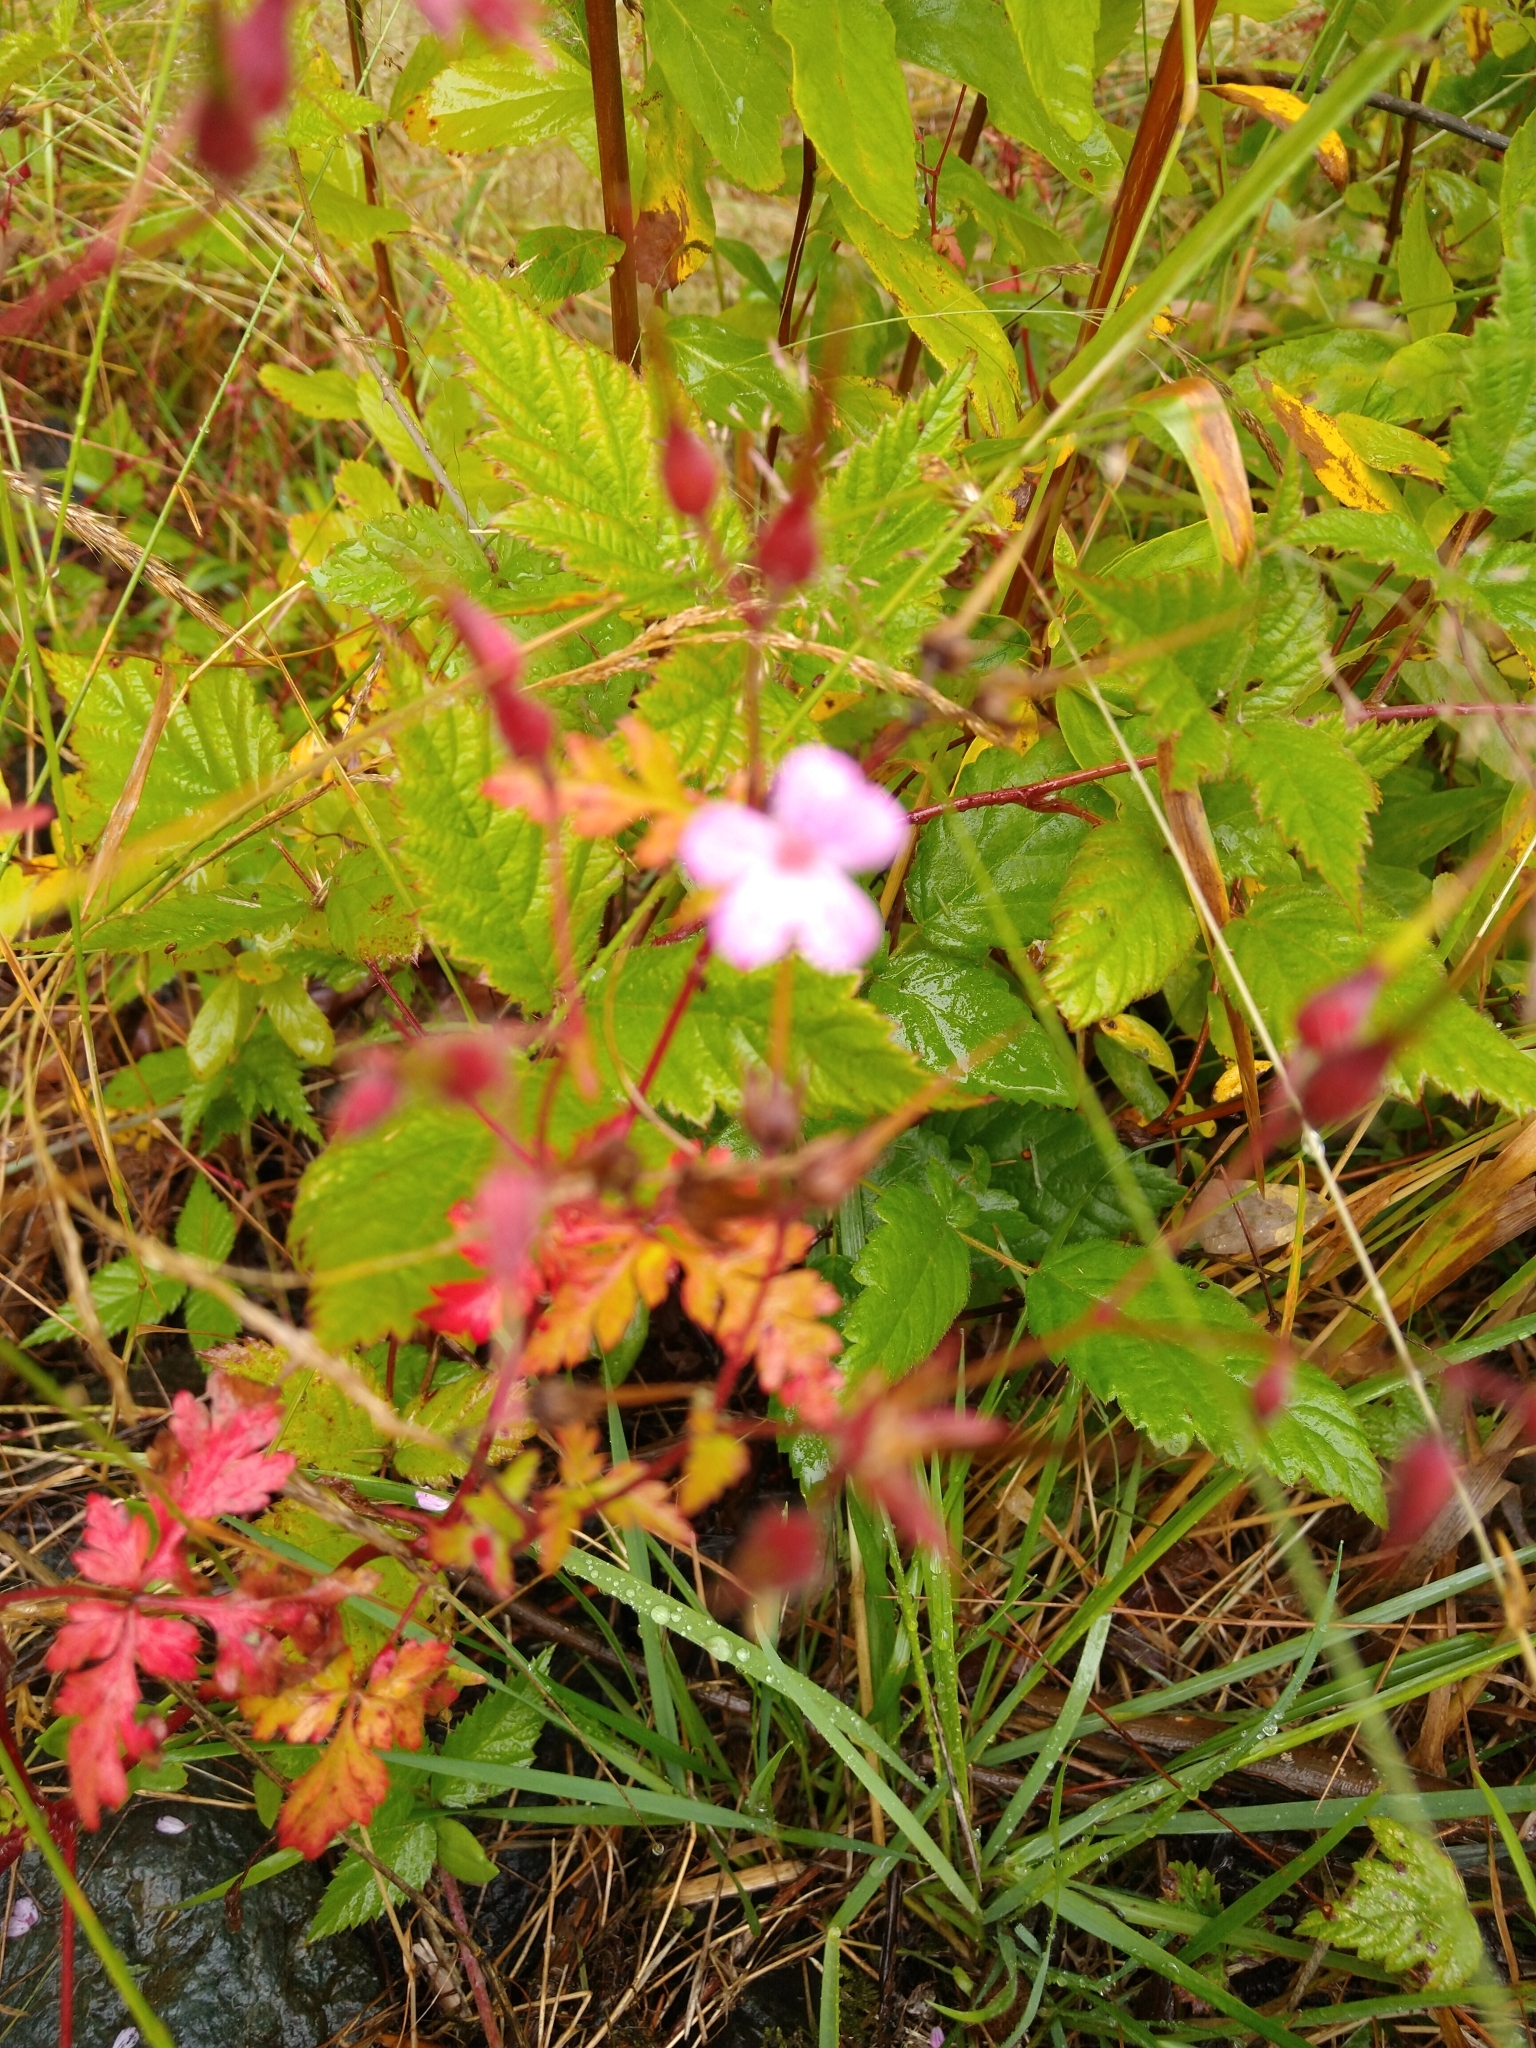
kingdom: Plantae
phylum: Tracheophyta
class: Magnoliopsida
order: Geraniales
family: Geraniaceae
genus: Geranium
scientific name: Geranium robertianum
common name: Herb-robert
